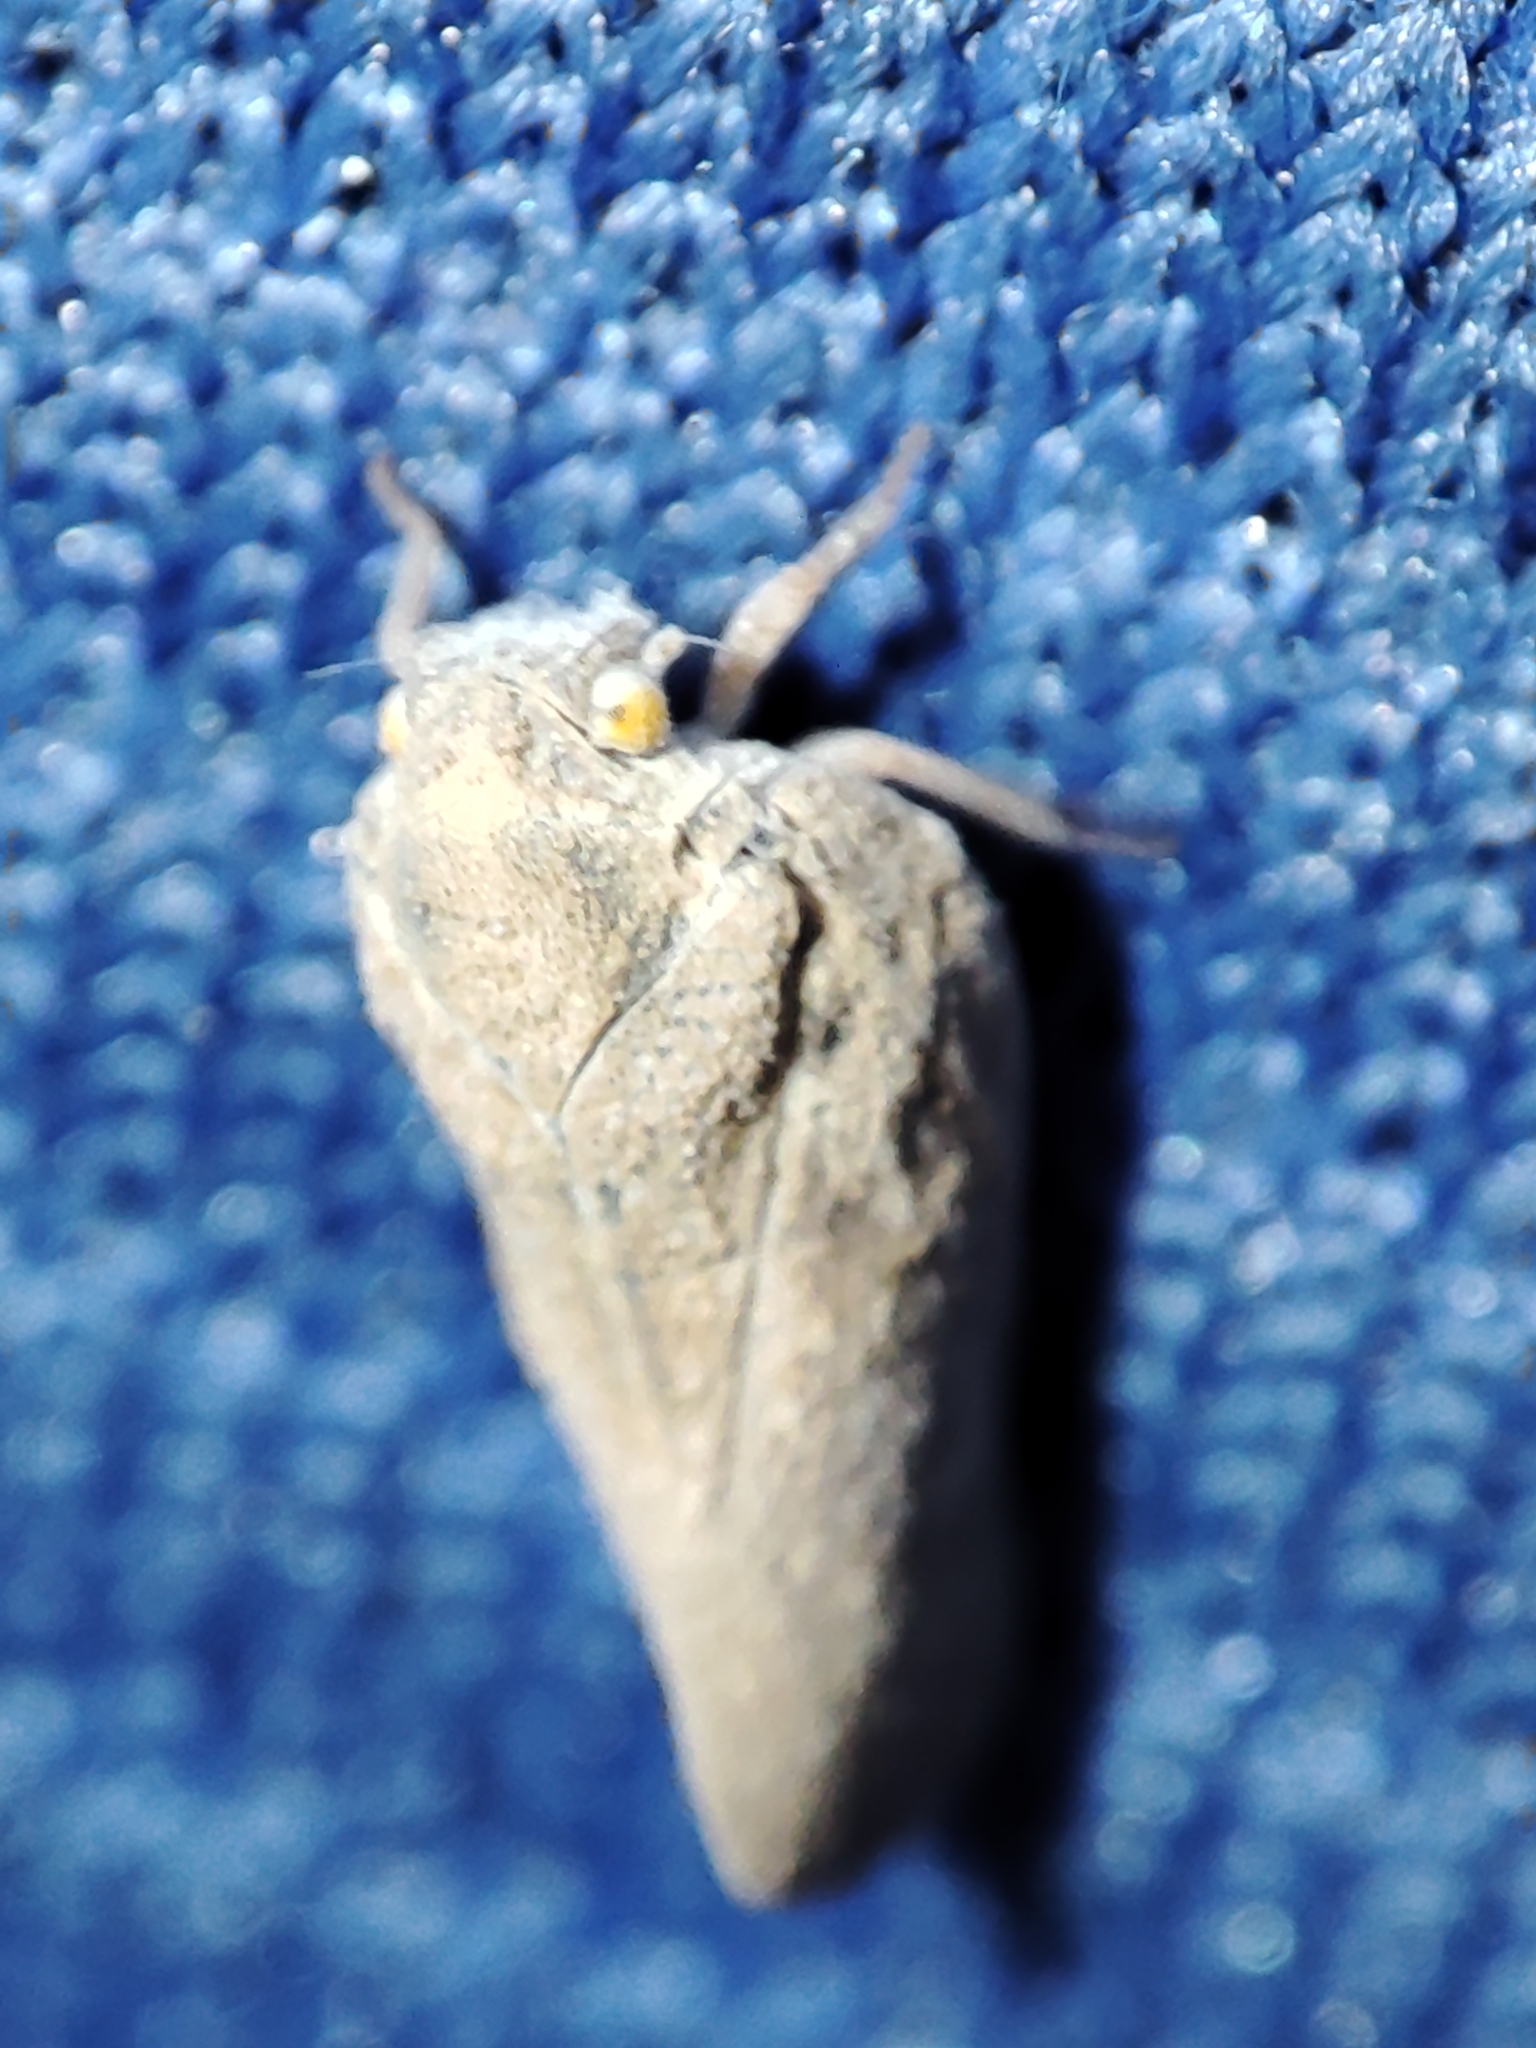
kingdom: Animalia
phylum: Arthropoda
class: Insecta
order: Hemiptera
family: Flatidae
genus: Metcalfa
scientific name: Metcalfa pruinosa
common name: Citrus flatid planthopper
